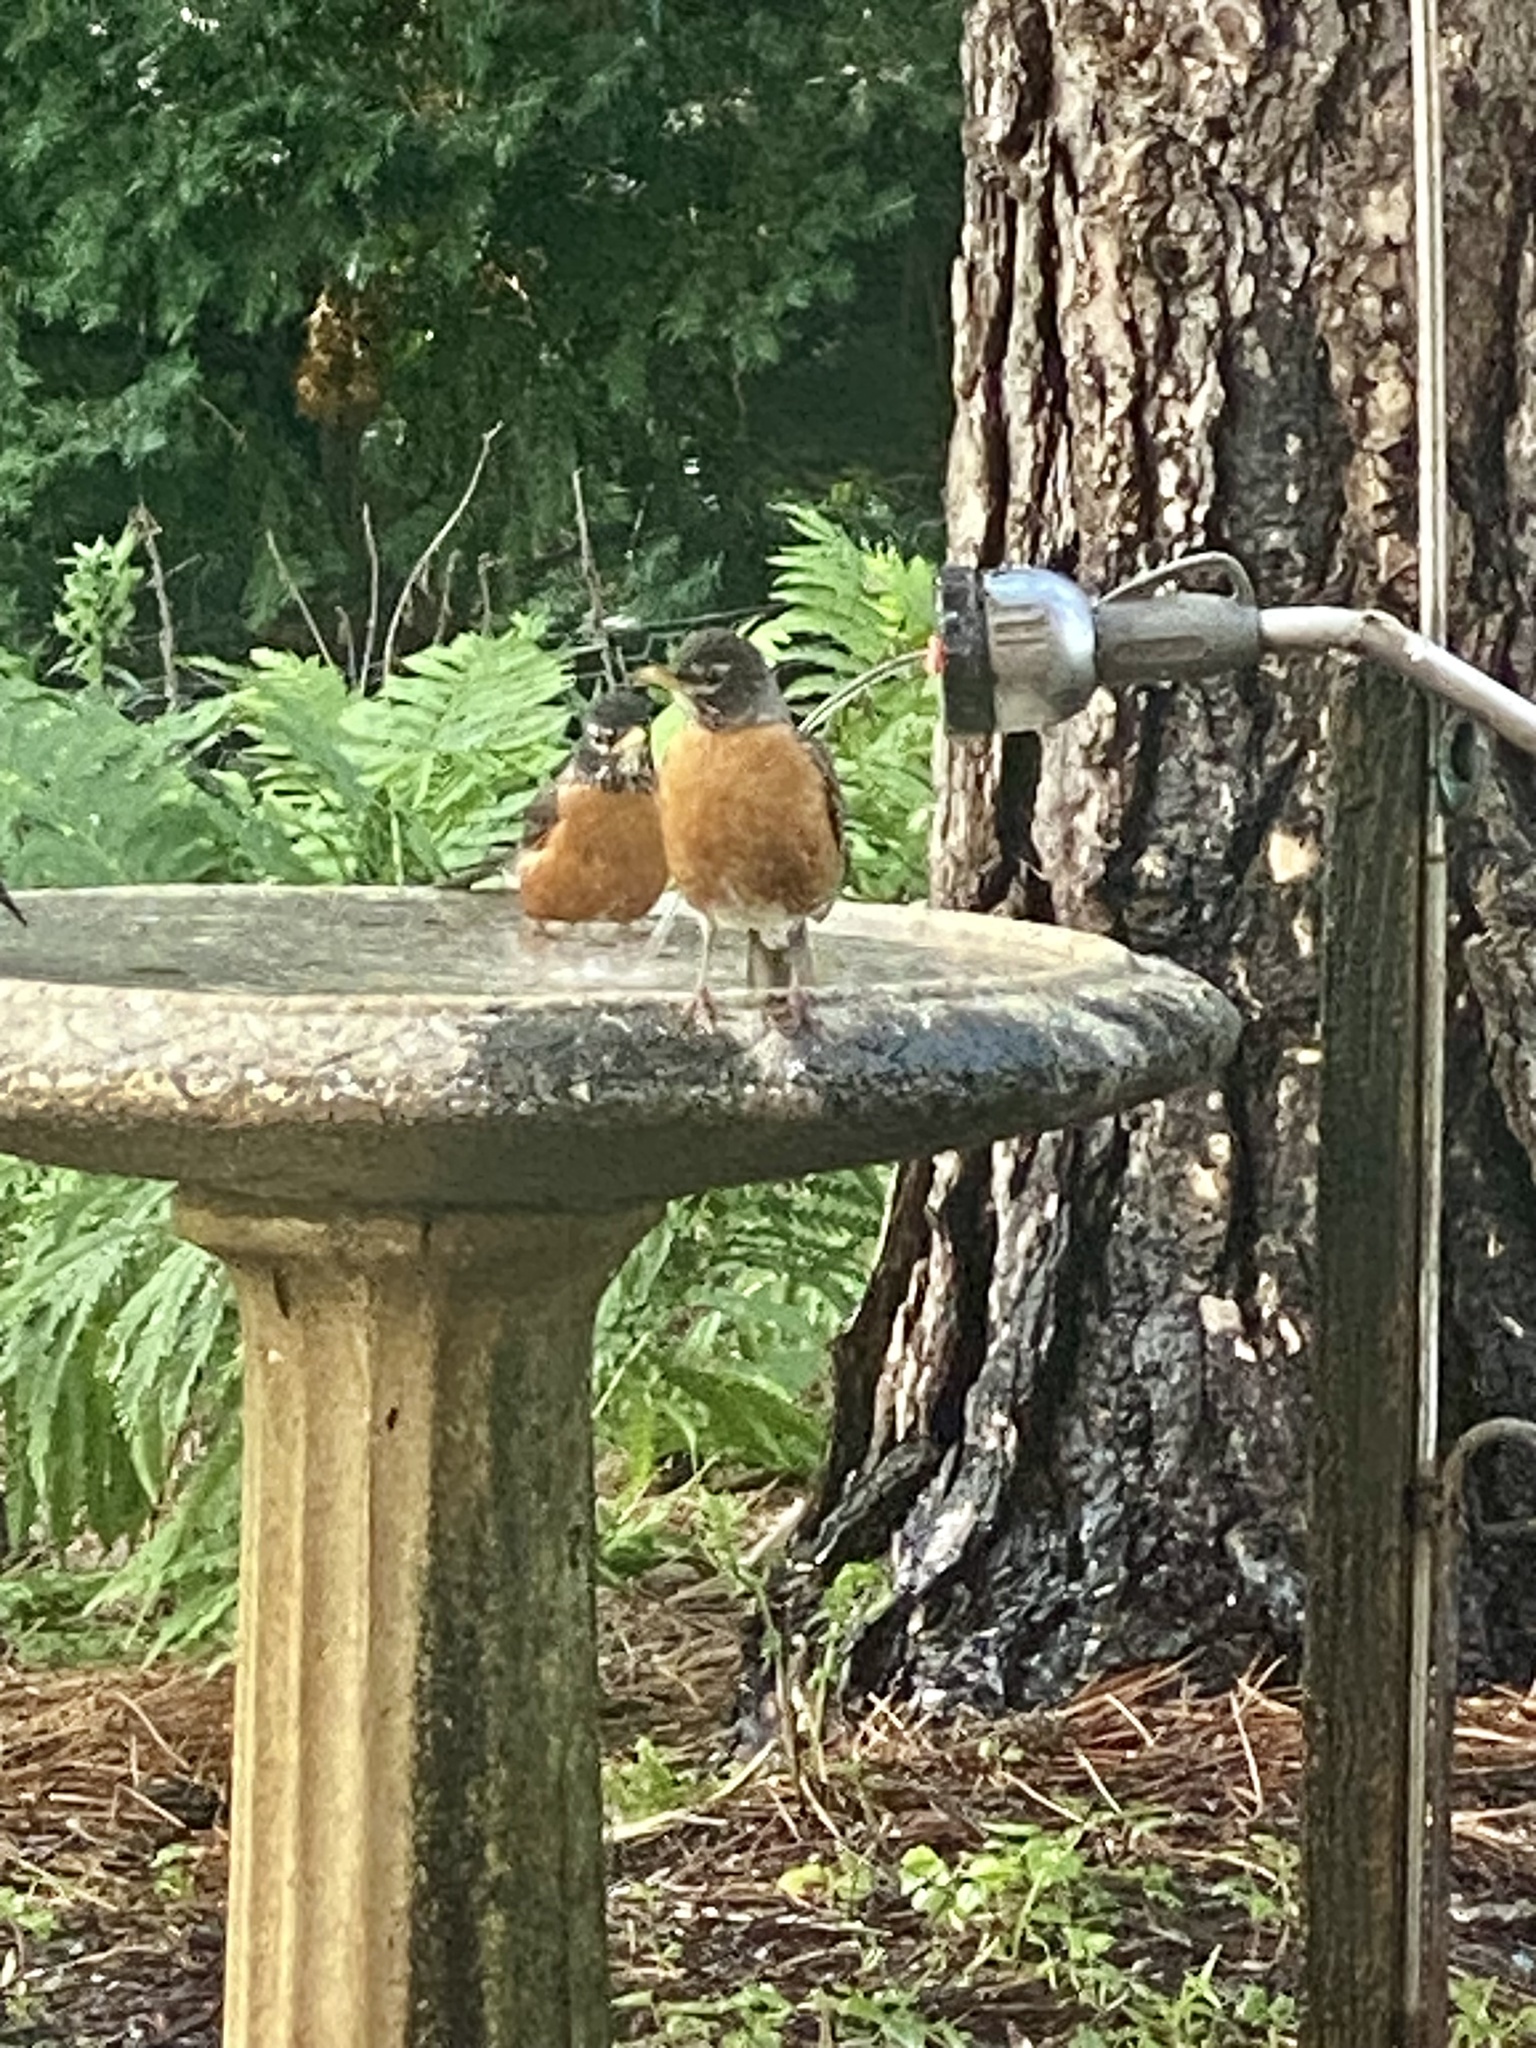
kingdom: Animalia
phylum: Chordata
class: Aves
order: Passeriformes
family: Turdidae
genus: Turdus
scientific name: Turdus migratorius
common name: American robin
